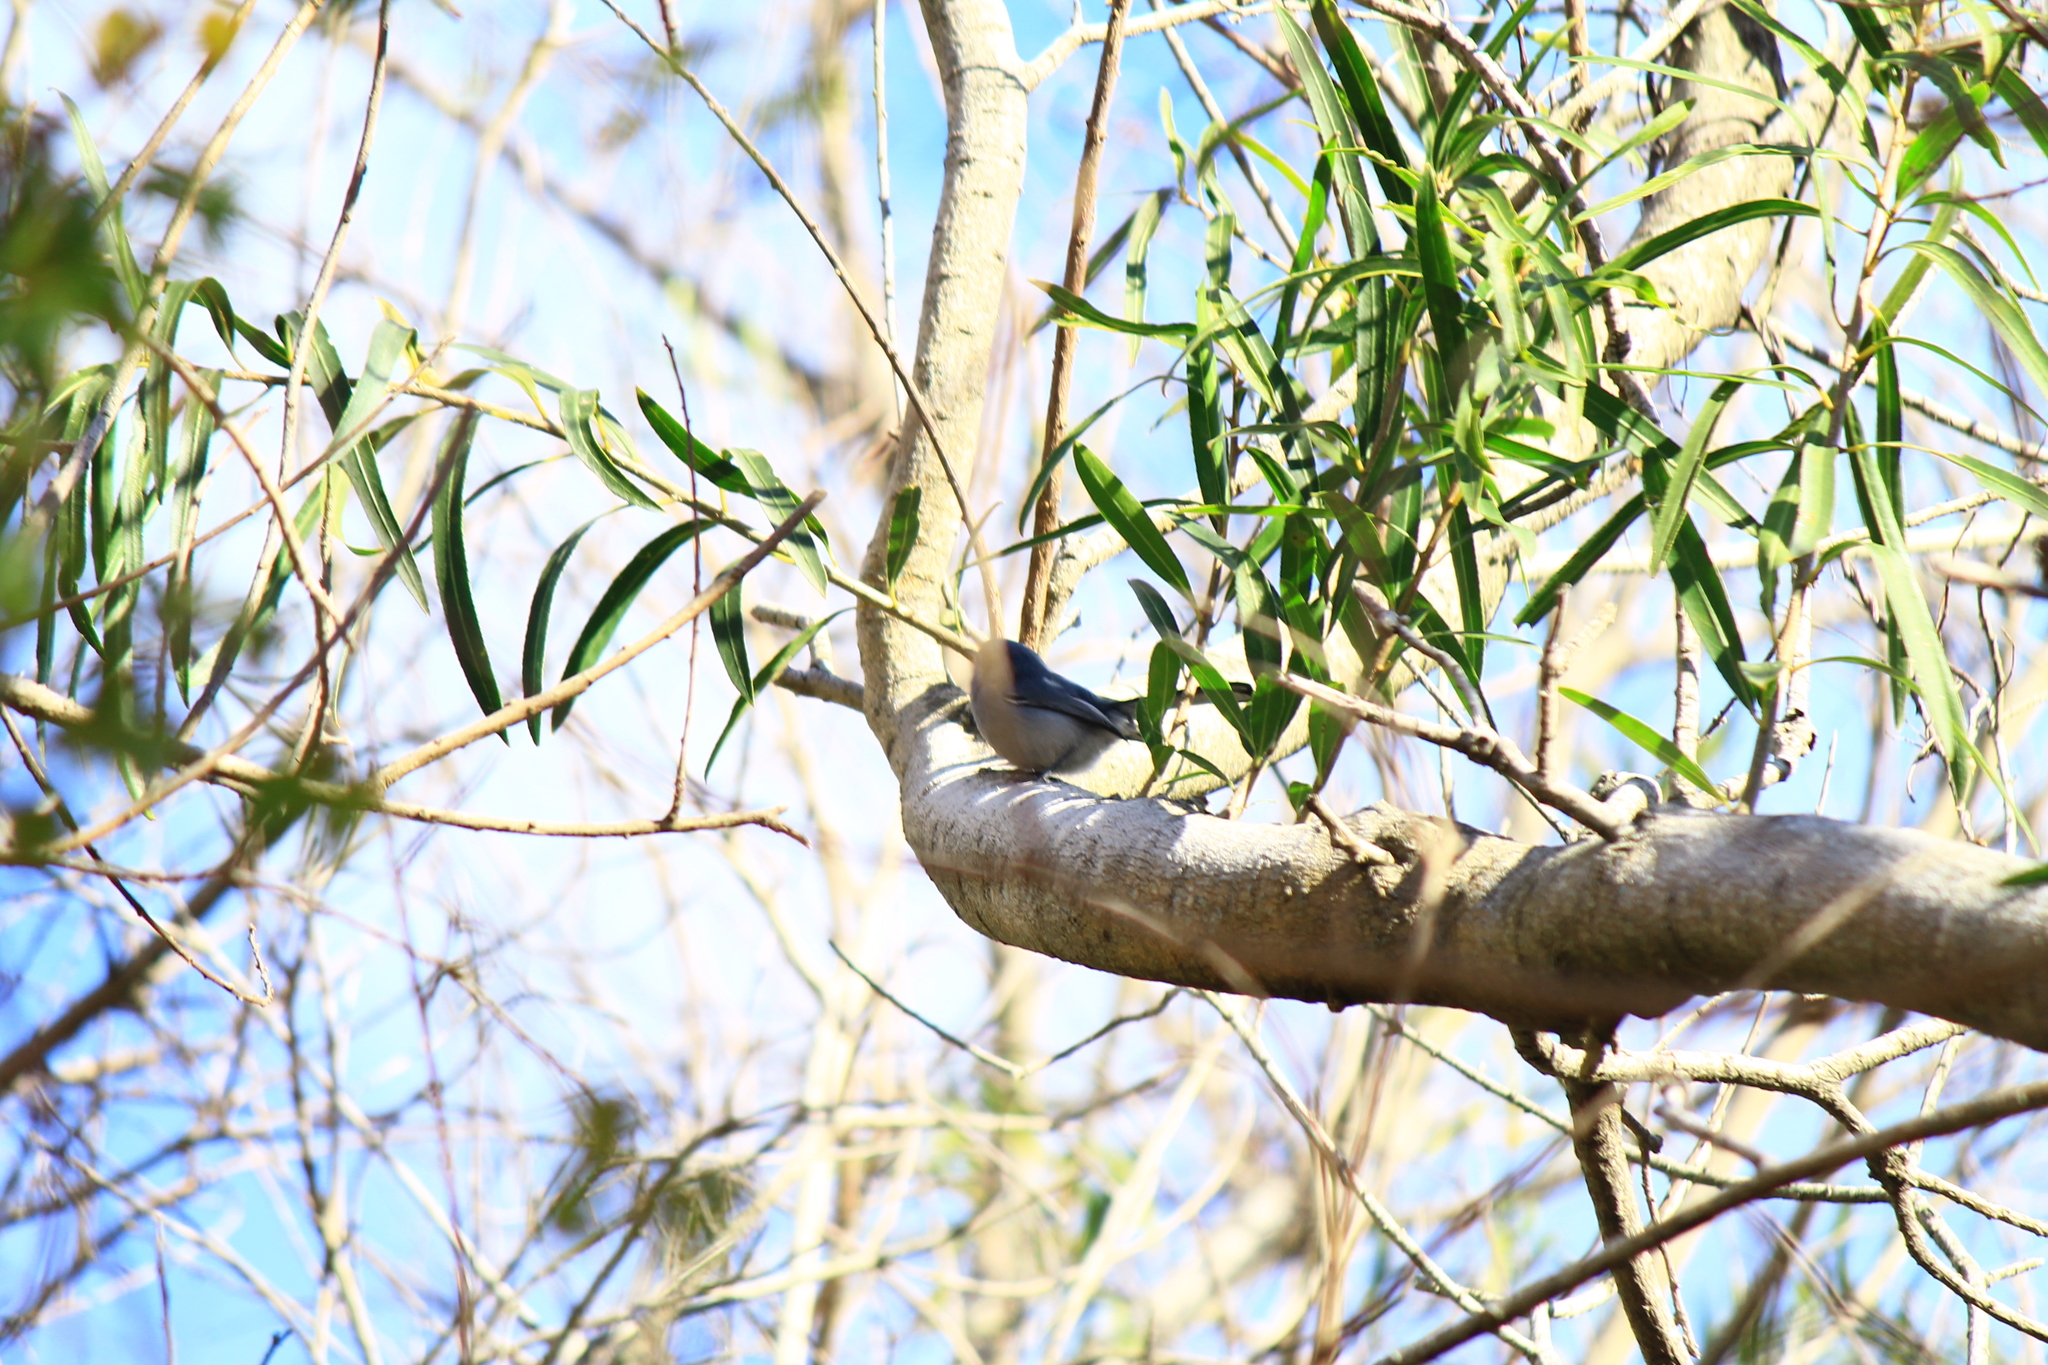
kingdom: Animalia
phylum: Chordata
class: Aves
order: Passeriformes
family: Polioptilidae
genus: Polioptila
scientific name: Polioptila dumicola
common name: Masked gnatcatcher
